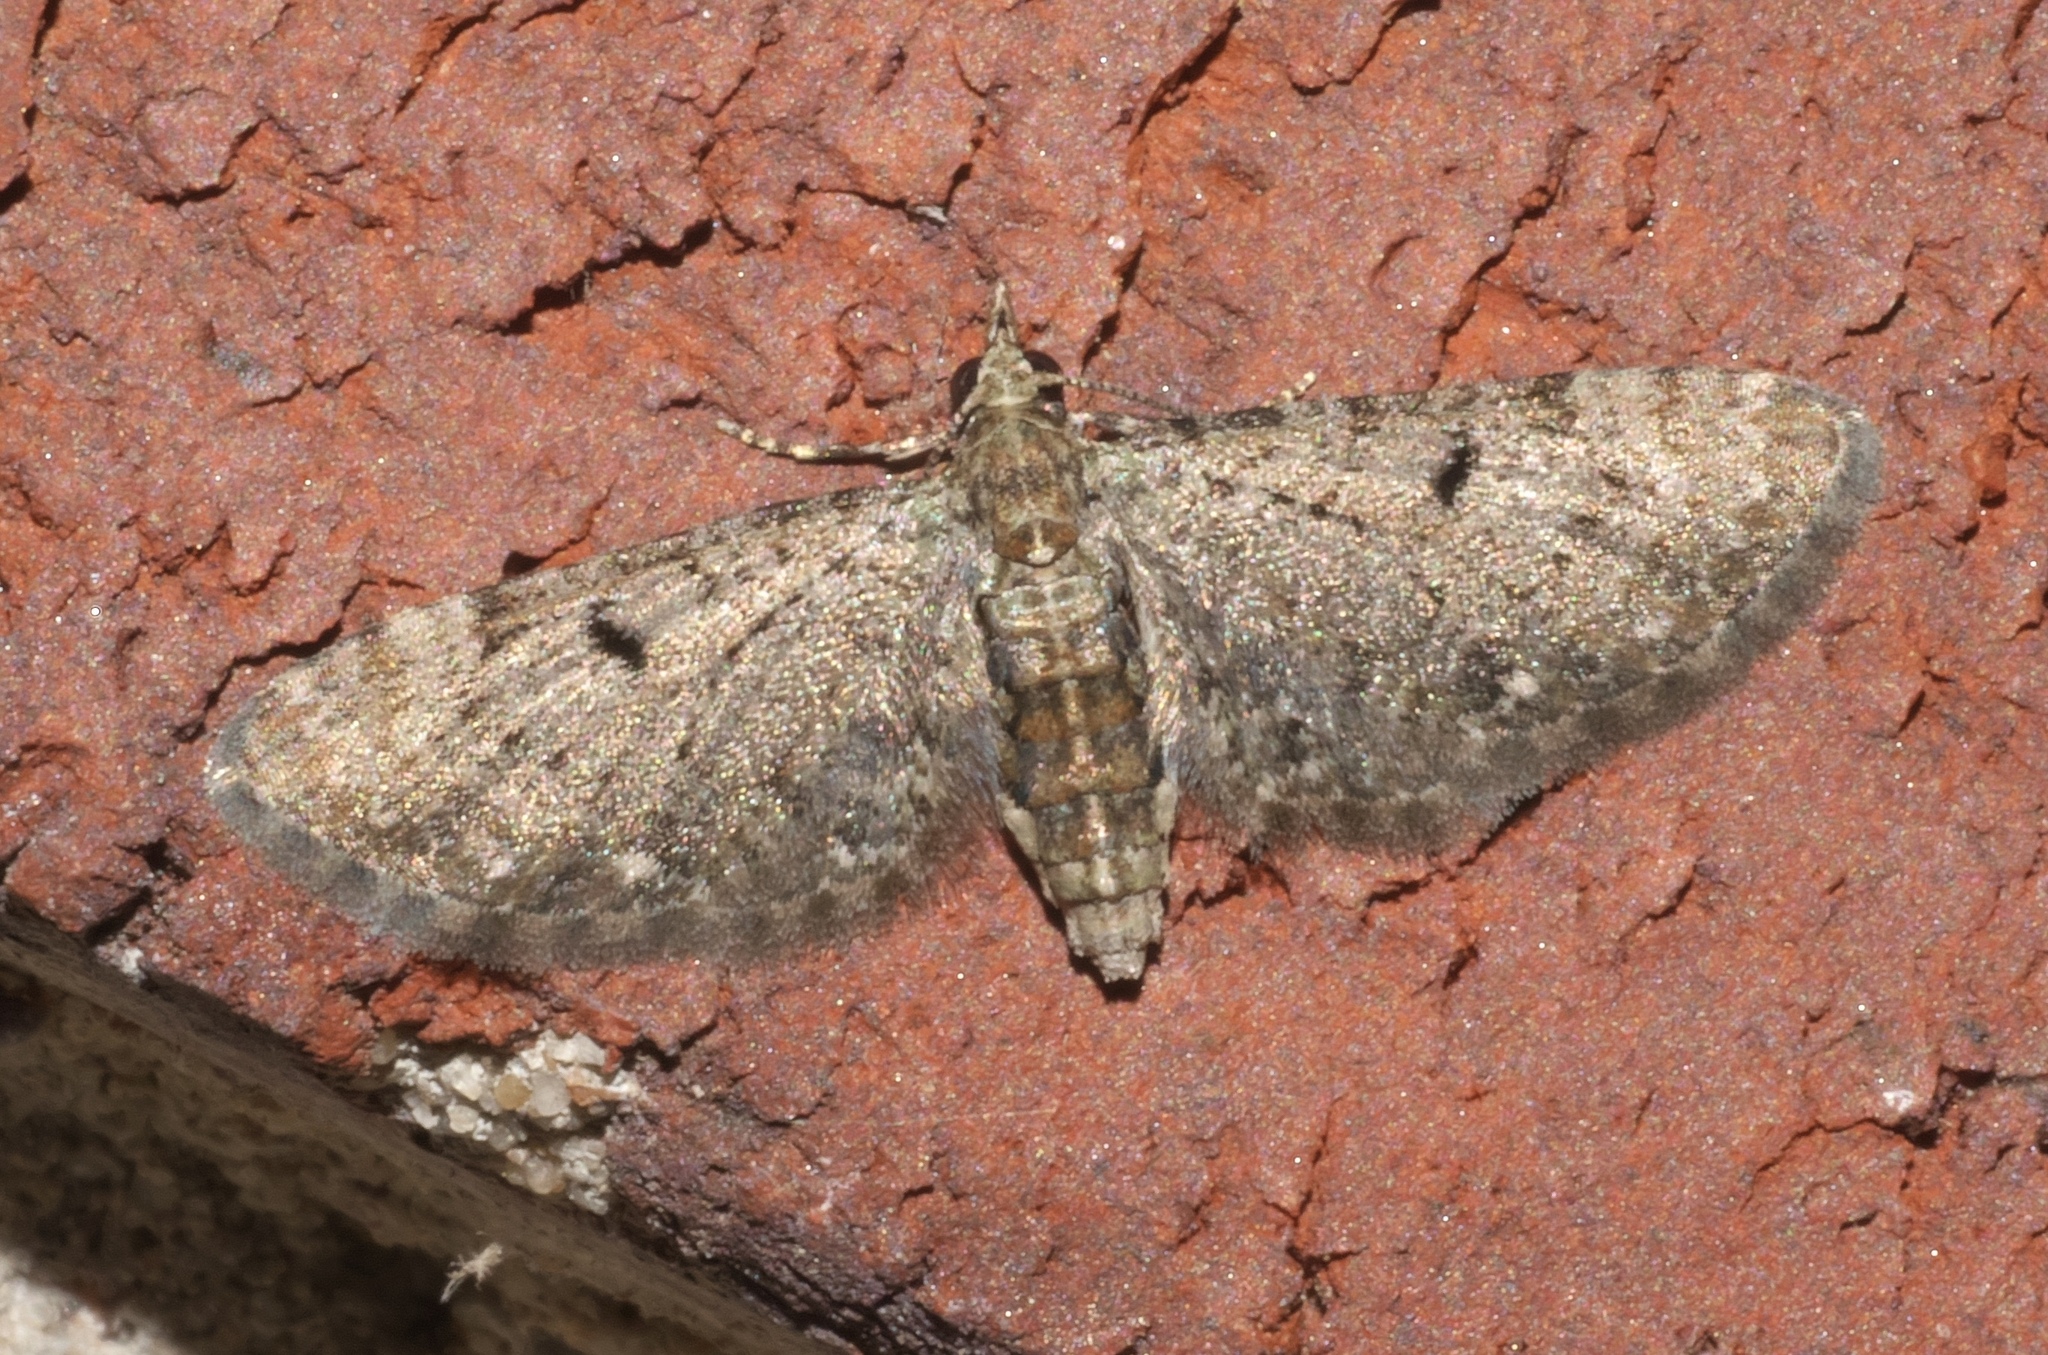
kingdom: Animalia
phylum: Arthropoda
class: Insecta
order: Lepidoptera
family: Geometridae
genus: Eupithecia
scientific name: Eupithecia miserulata
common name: Common eupithecia
